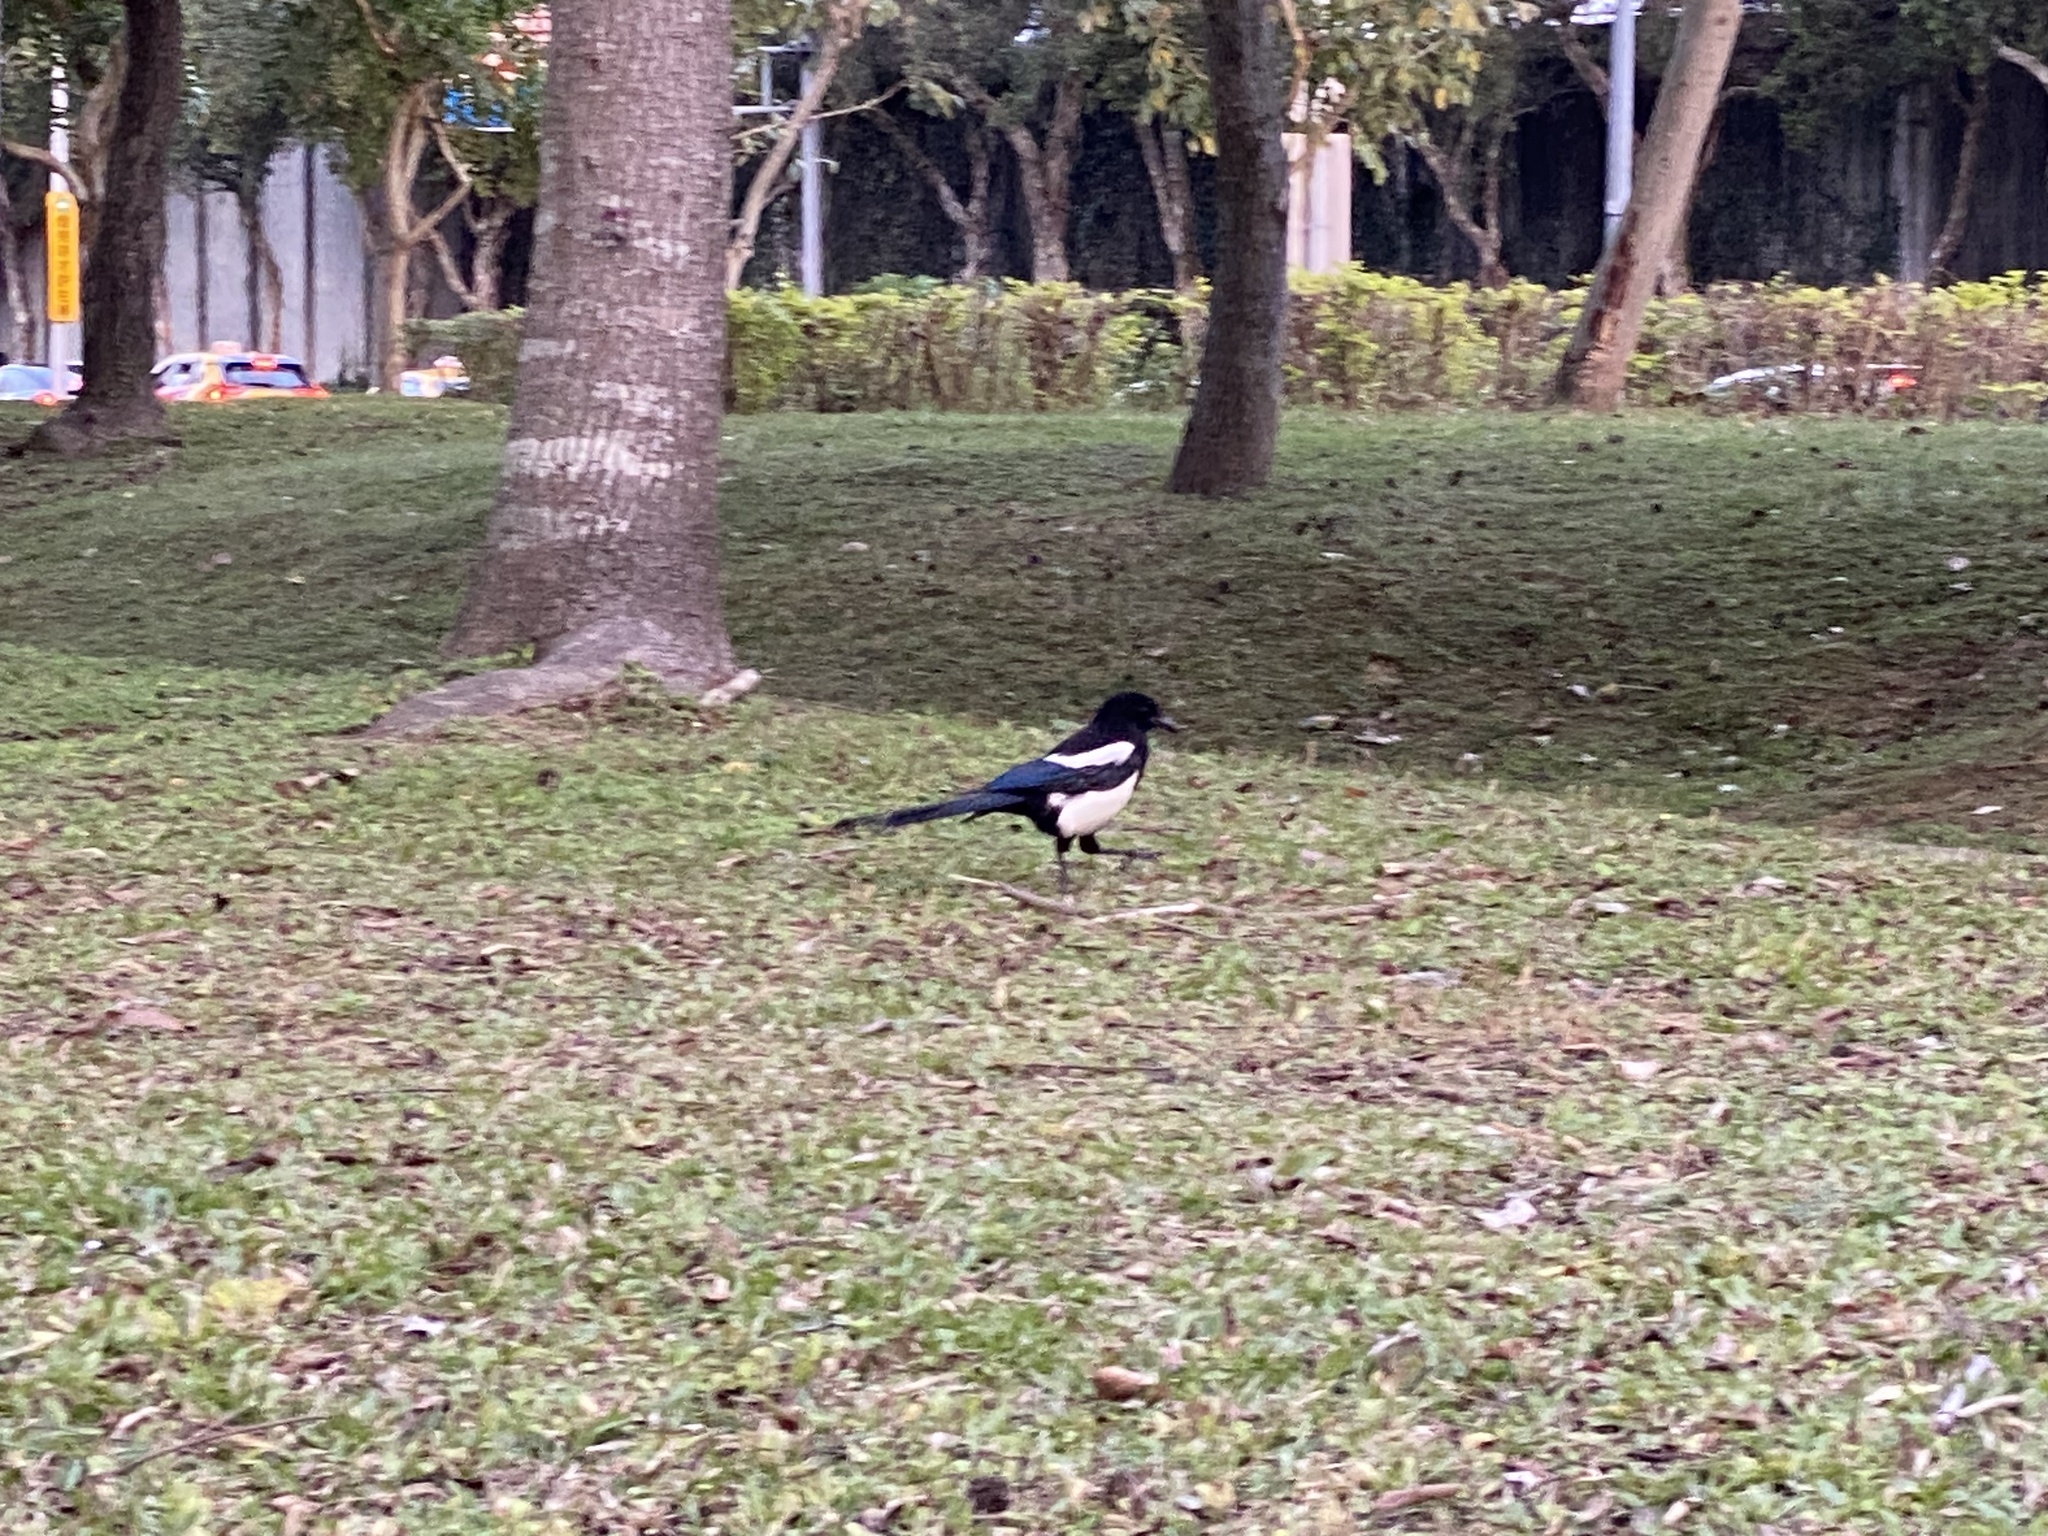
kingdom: Animalia
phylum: Chordata
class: Aves
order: Passeriformes
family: Corvidae
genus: Pica
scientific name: Pica serica
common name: Oriental magpie
